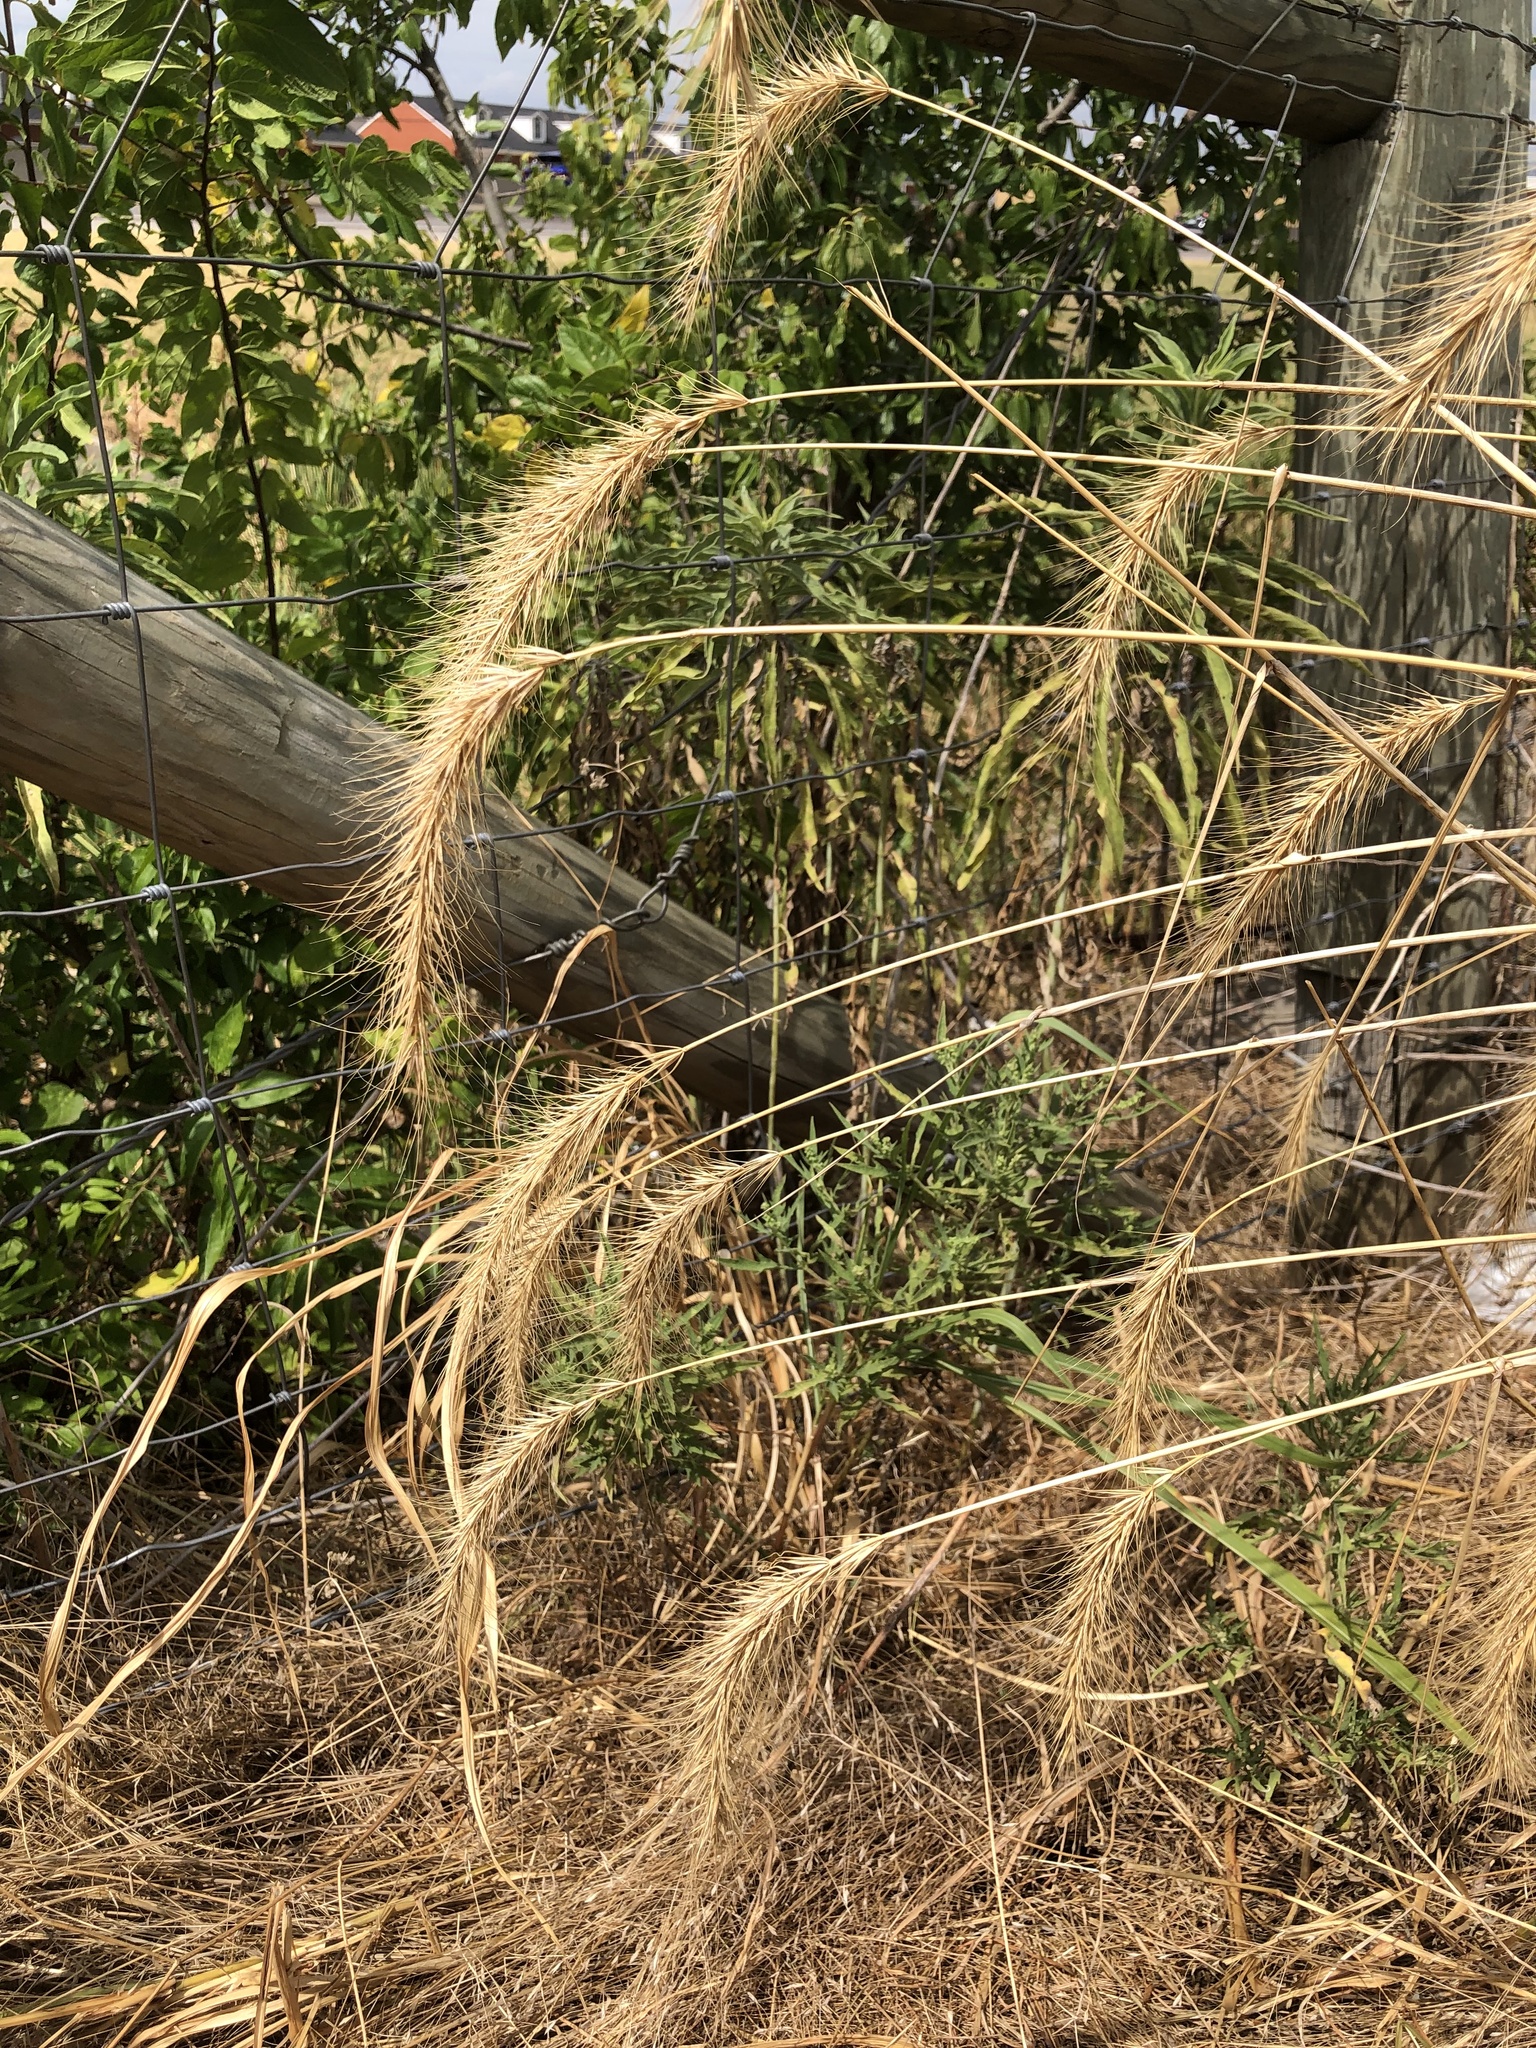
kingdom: Plantae
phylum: Tracheophyta
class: Liliopsida
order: Poales
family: Poaceae
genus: Elymus
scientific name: Elymus canadensis
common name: Canada wild rye
